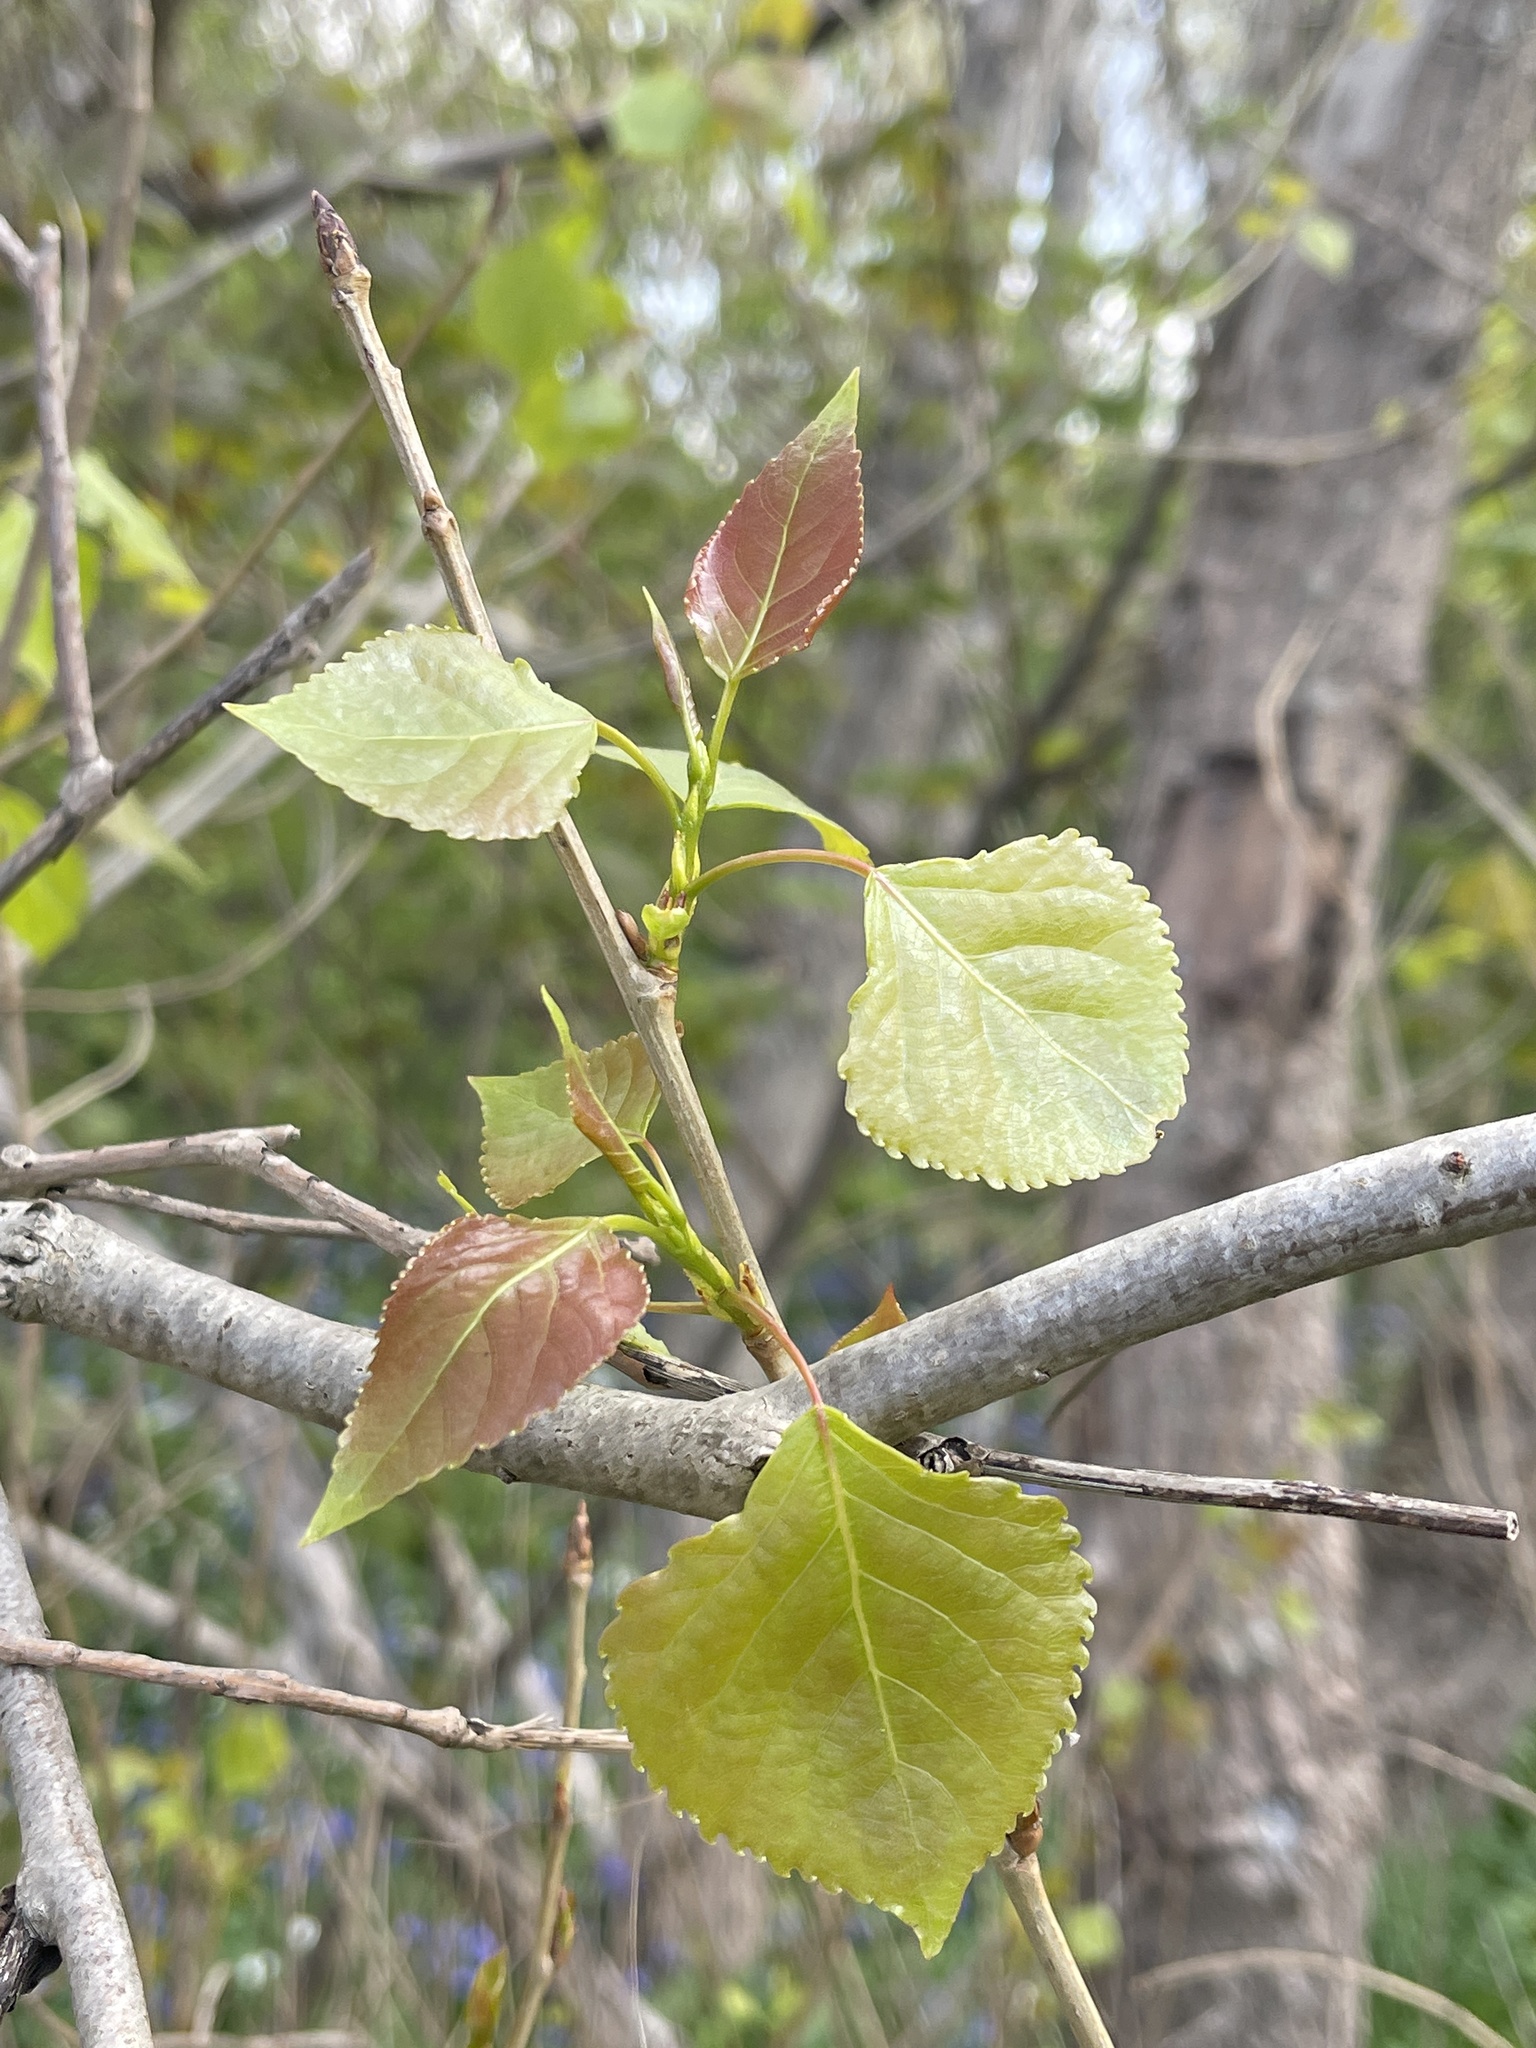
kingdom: Plantae
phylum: Tracheophyta
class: Magnoliopsida
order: Malpighiales
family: Salicaceae
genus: Populus
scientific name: Populus canadensis
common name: Carolina poplar
